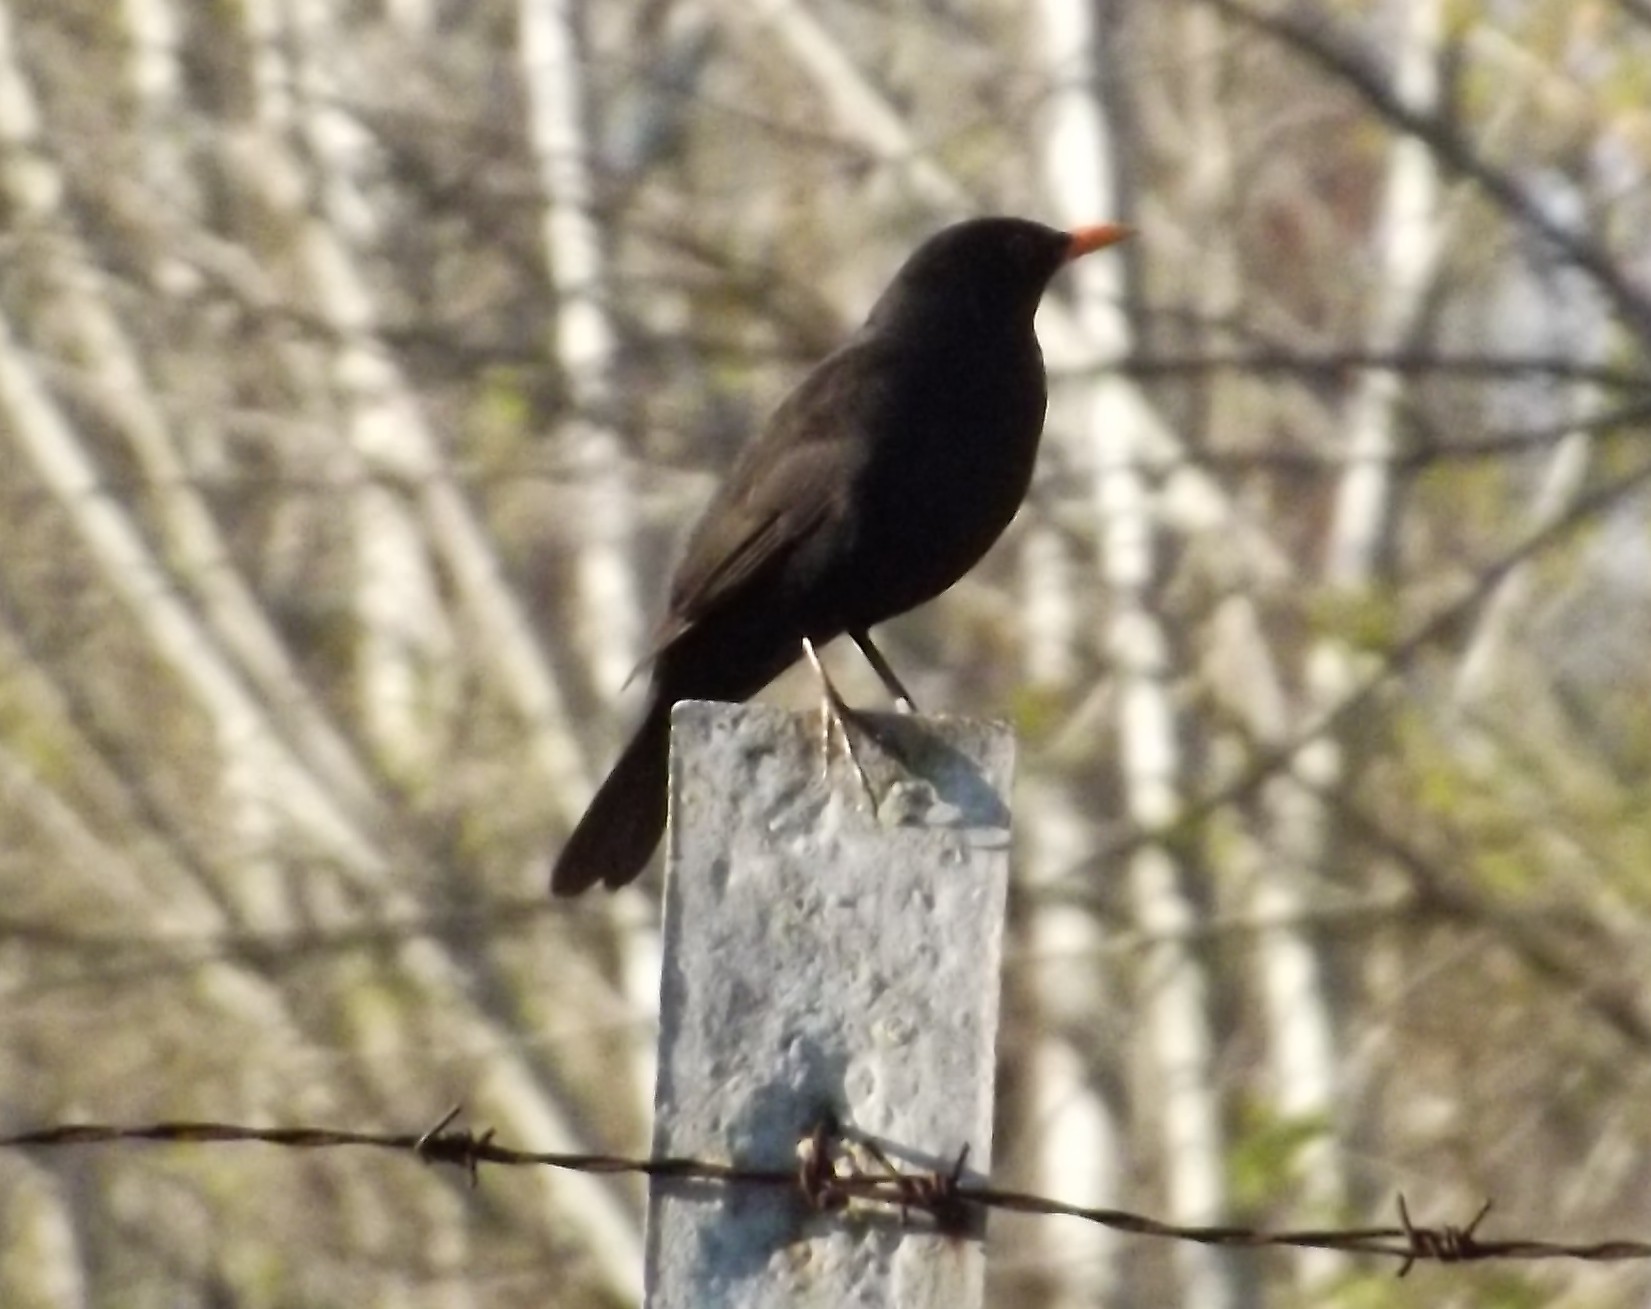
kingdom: Animalia
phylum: Chordata
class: Aves
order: Passeriformes
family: Turdidae
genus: Turdus
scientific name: Turdus merula
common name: Common blackbird
